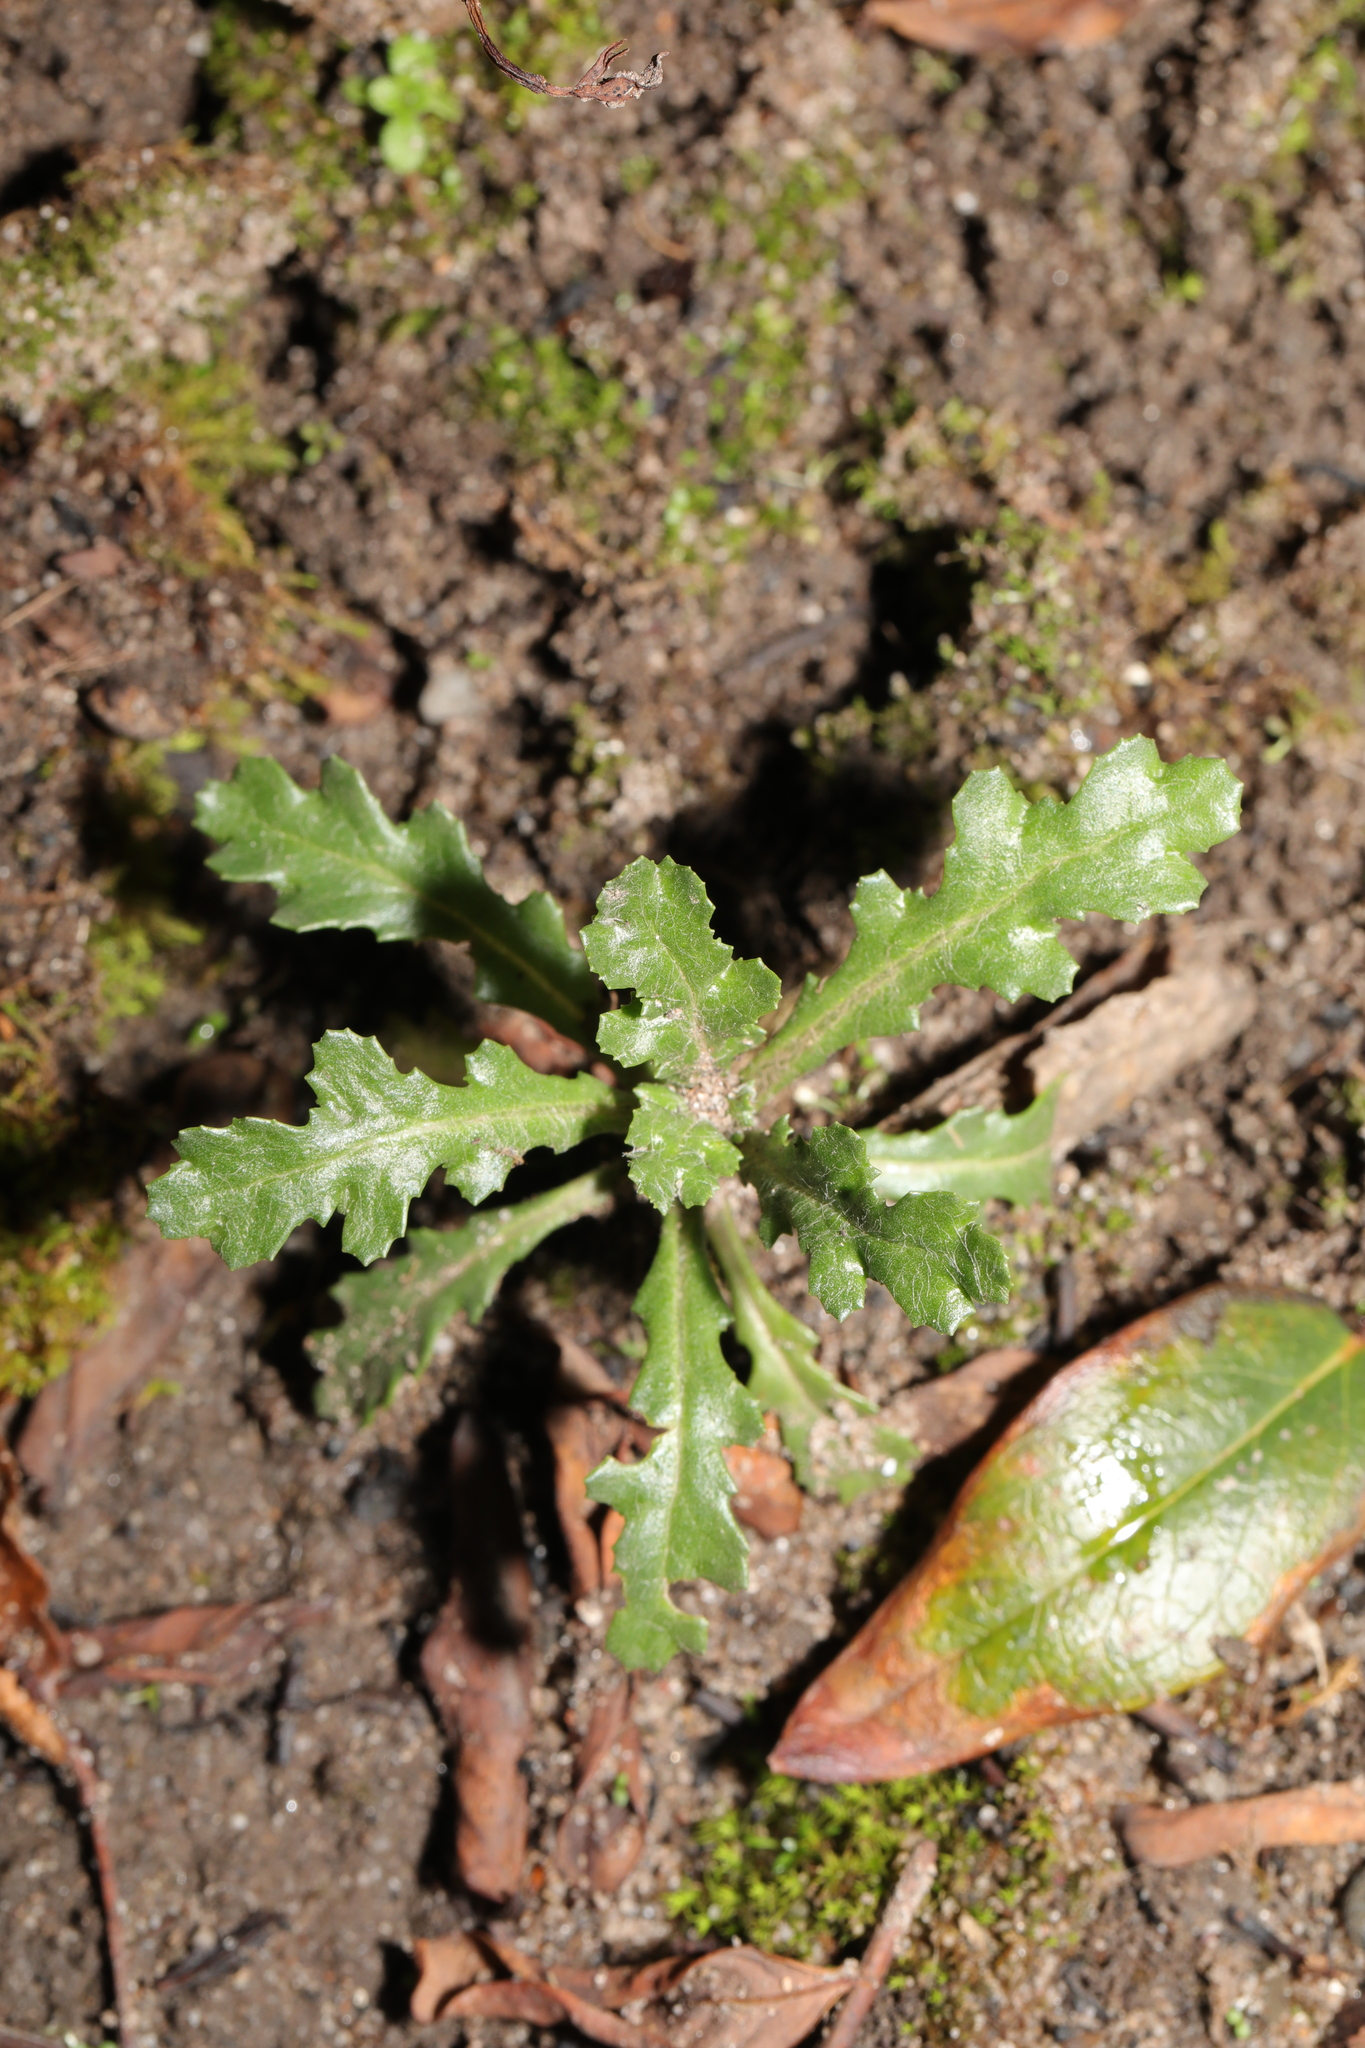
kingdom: Plantae
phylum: Tracheophyta
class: Magnoliopsida
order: Asterales
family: Asteraceae
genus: Senecio
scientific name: Senecio vulgaris
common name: Old-man-in-the-spring
